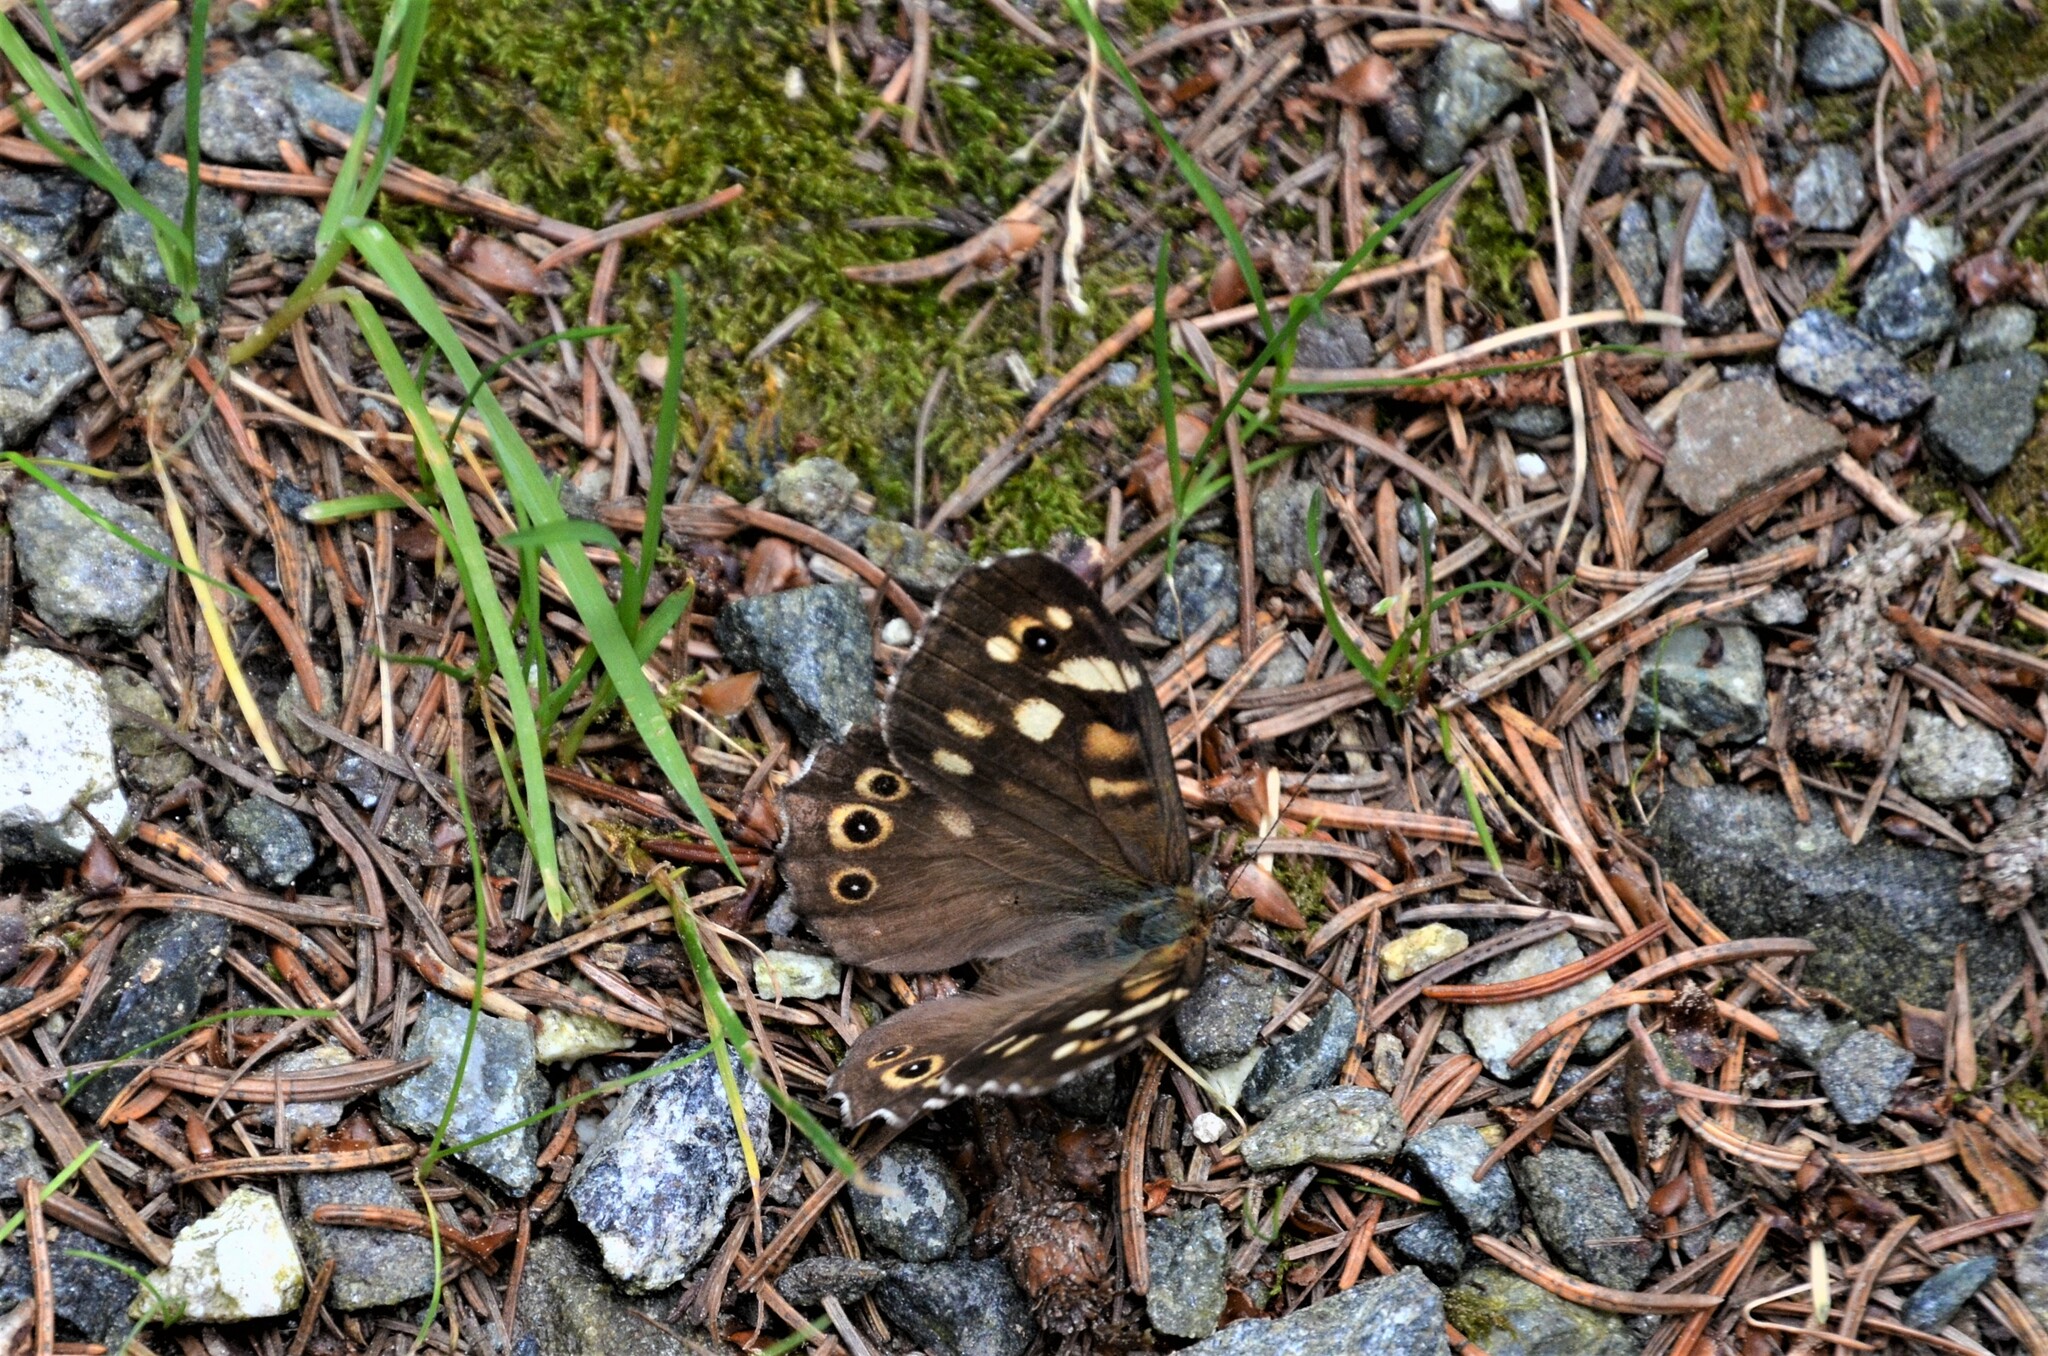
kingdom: Animalia
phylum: Arthropoda
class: Insecta
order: Lepidoptera
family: Nymphalidae
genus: Pararge
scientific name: Pararge aegeria
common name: Speckled wood
